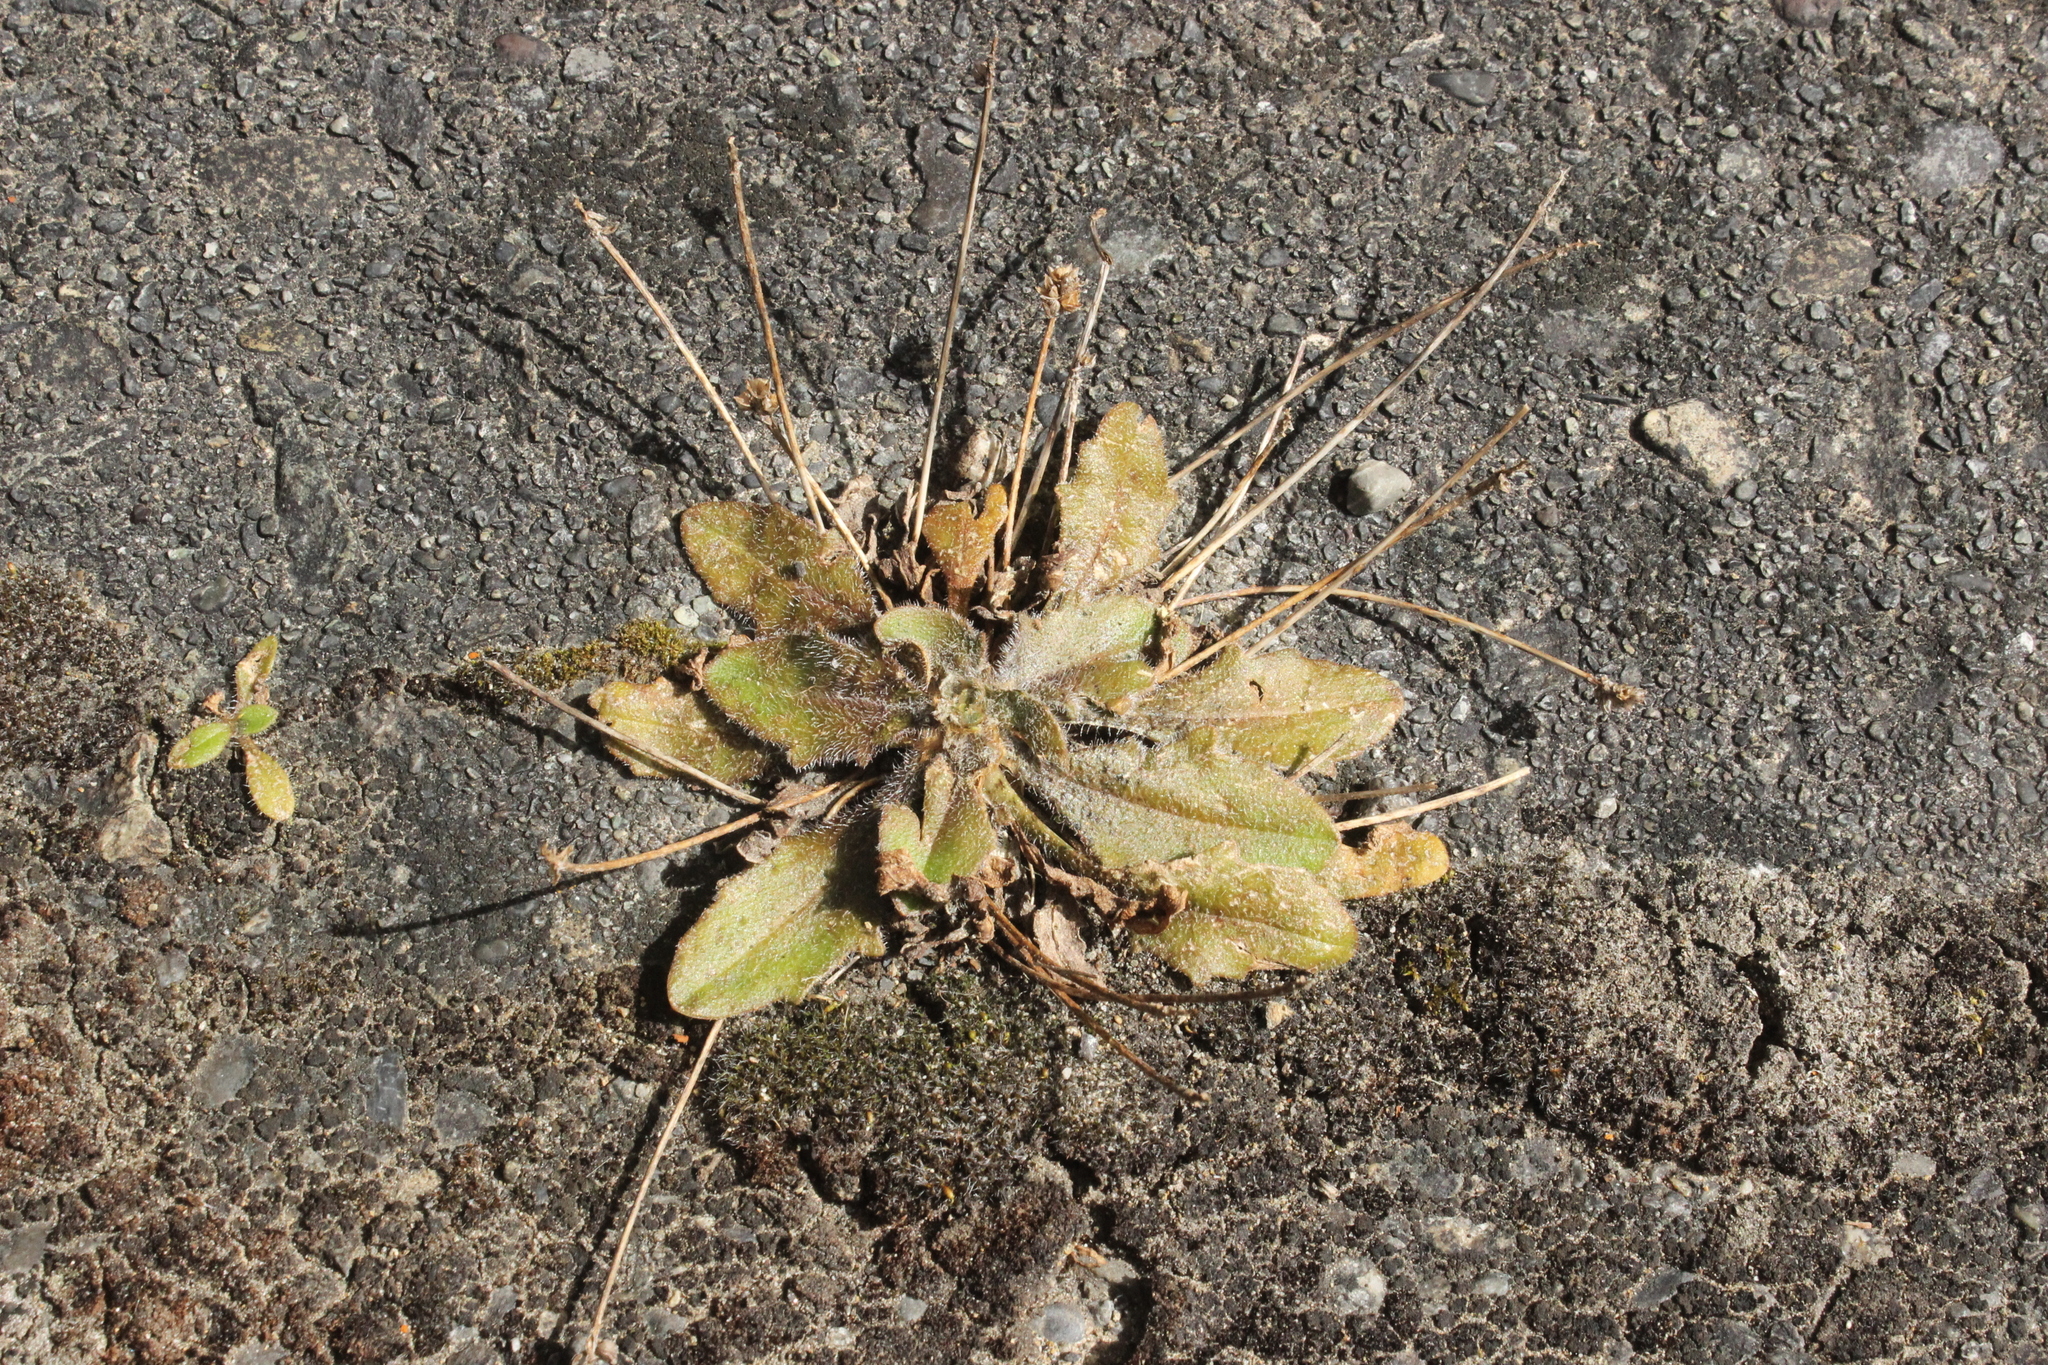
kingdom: Plantae
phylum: Tracheophyta
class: Magnoliopsida
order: Lamiales
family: Plantaginaceae
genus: Plantago
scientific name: Plantago raoulii
